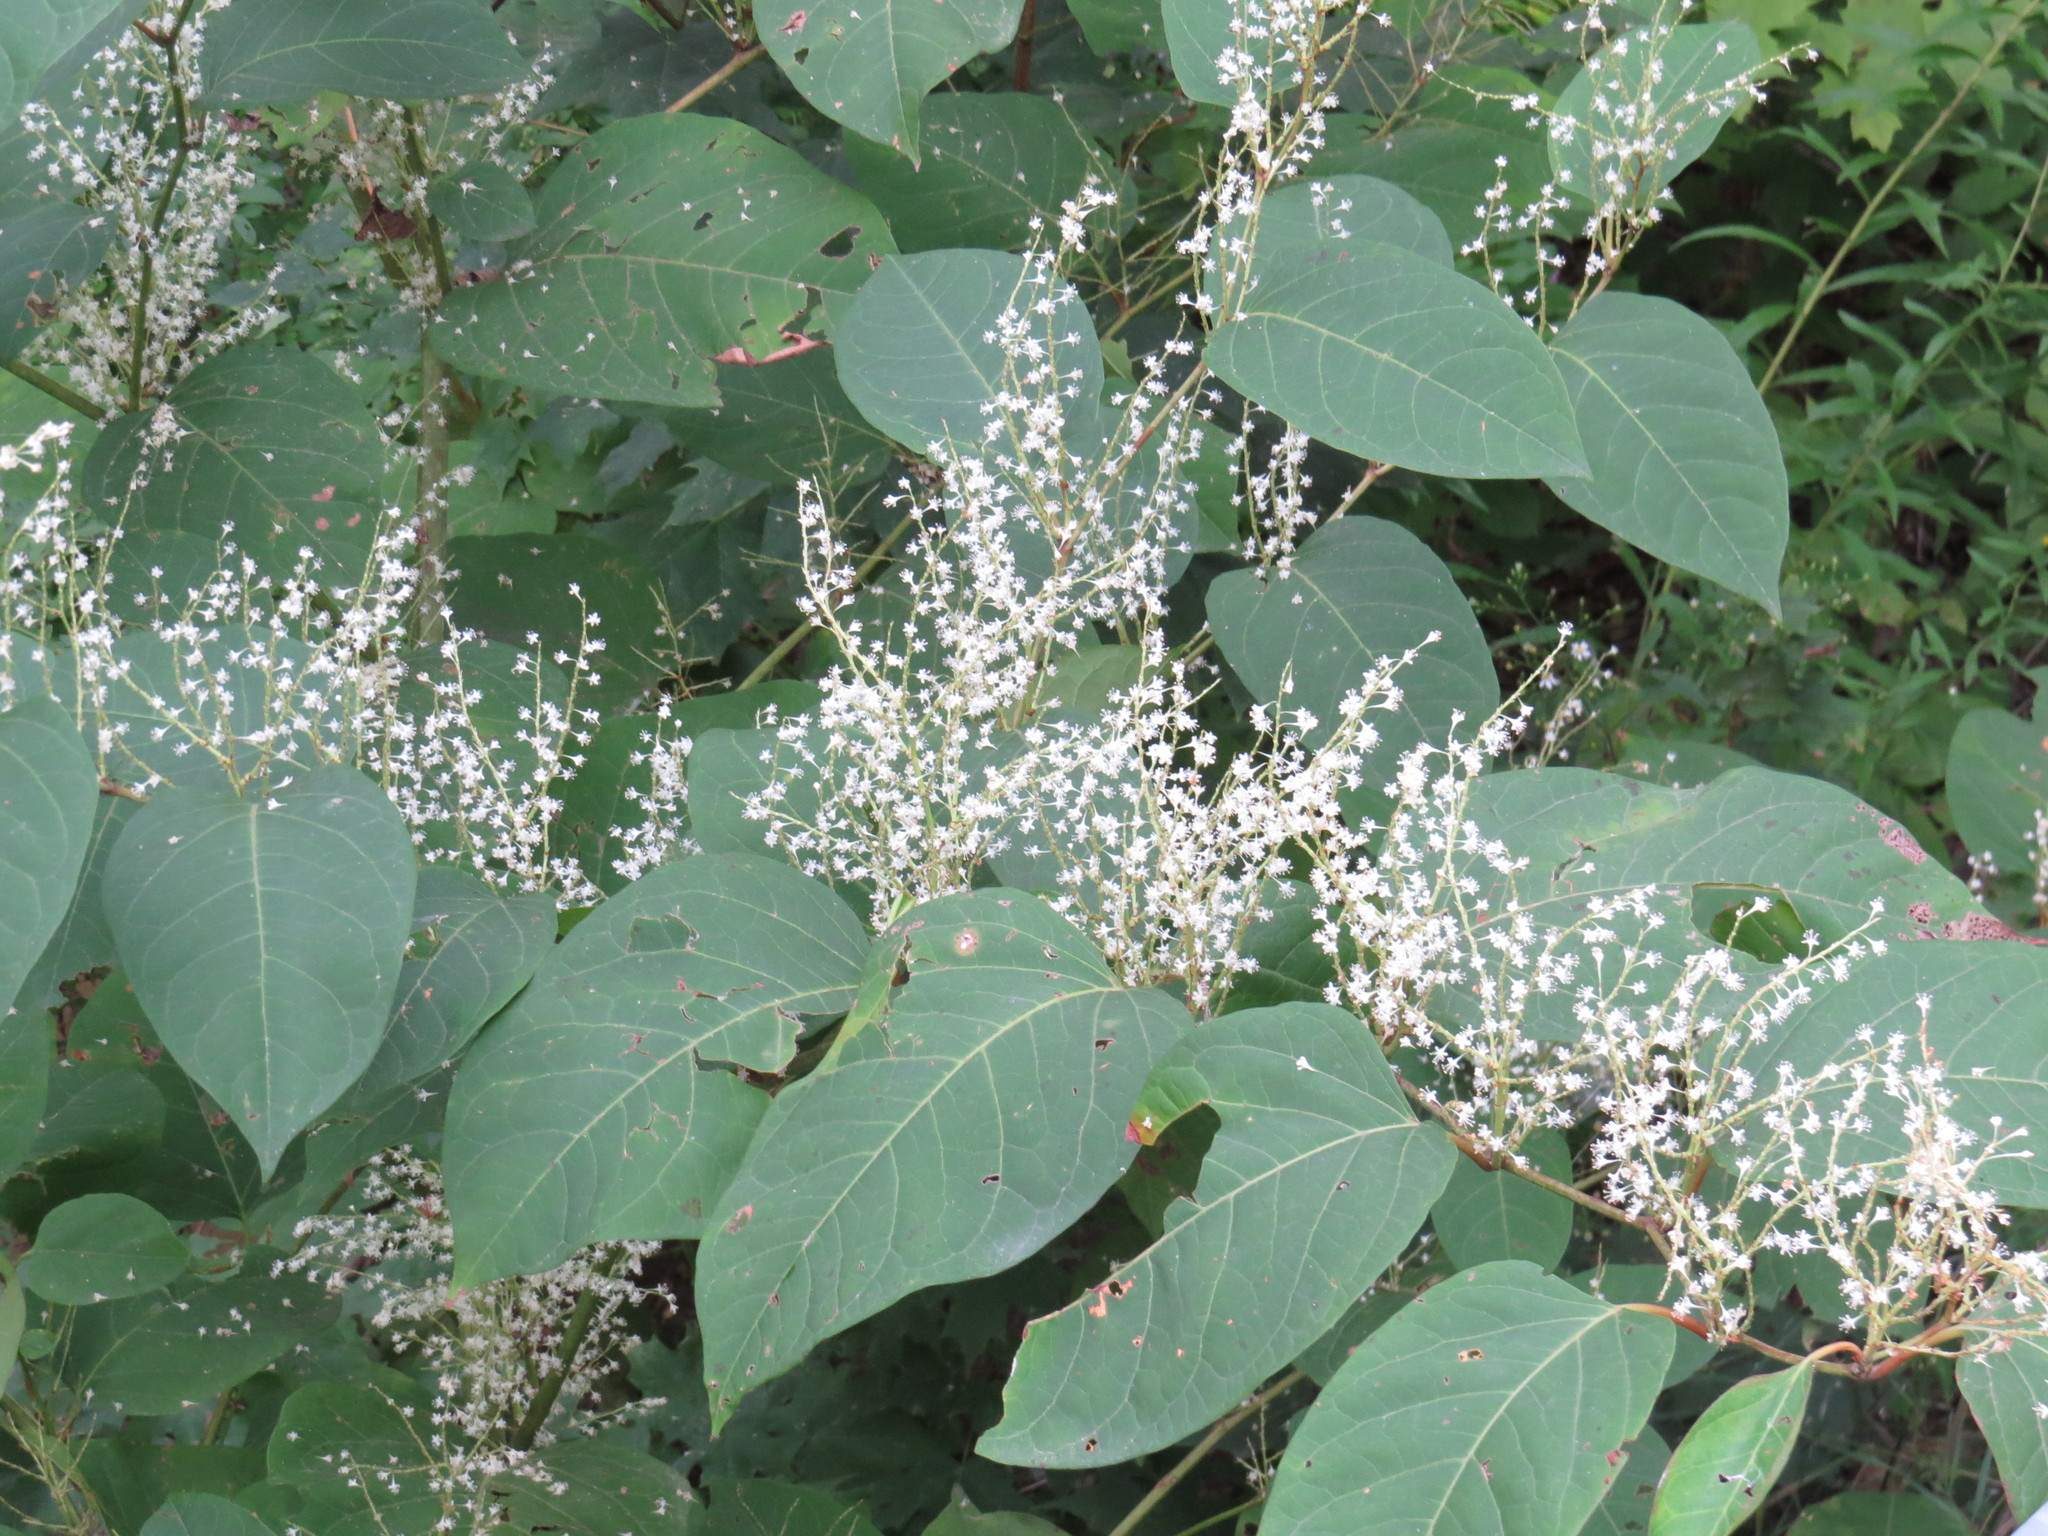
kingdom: Plantae
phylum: Tracheophyta
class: Magnoliopsida
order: Caryophyllales
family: Polygonaceae
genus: Reynoutria
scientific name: Reynoutria japonica
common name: Japanese knotweed
